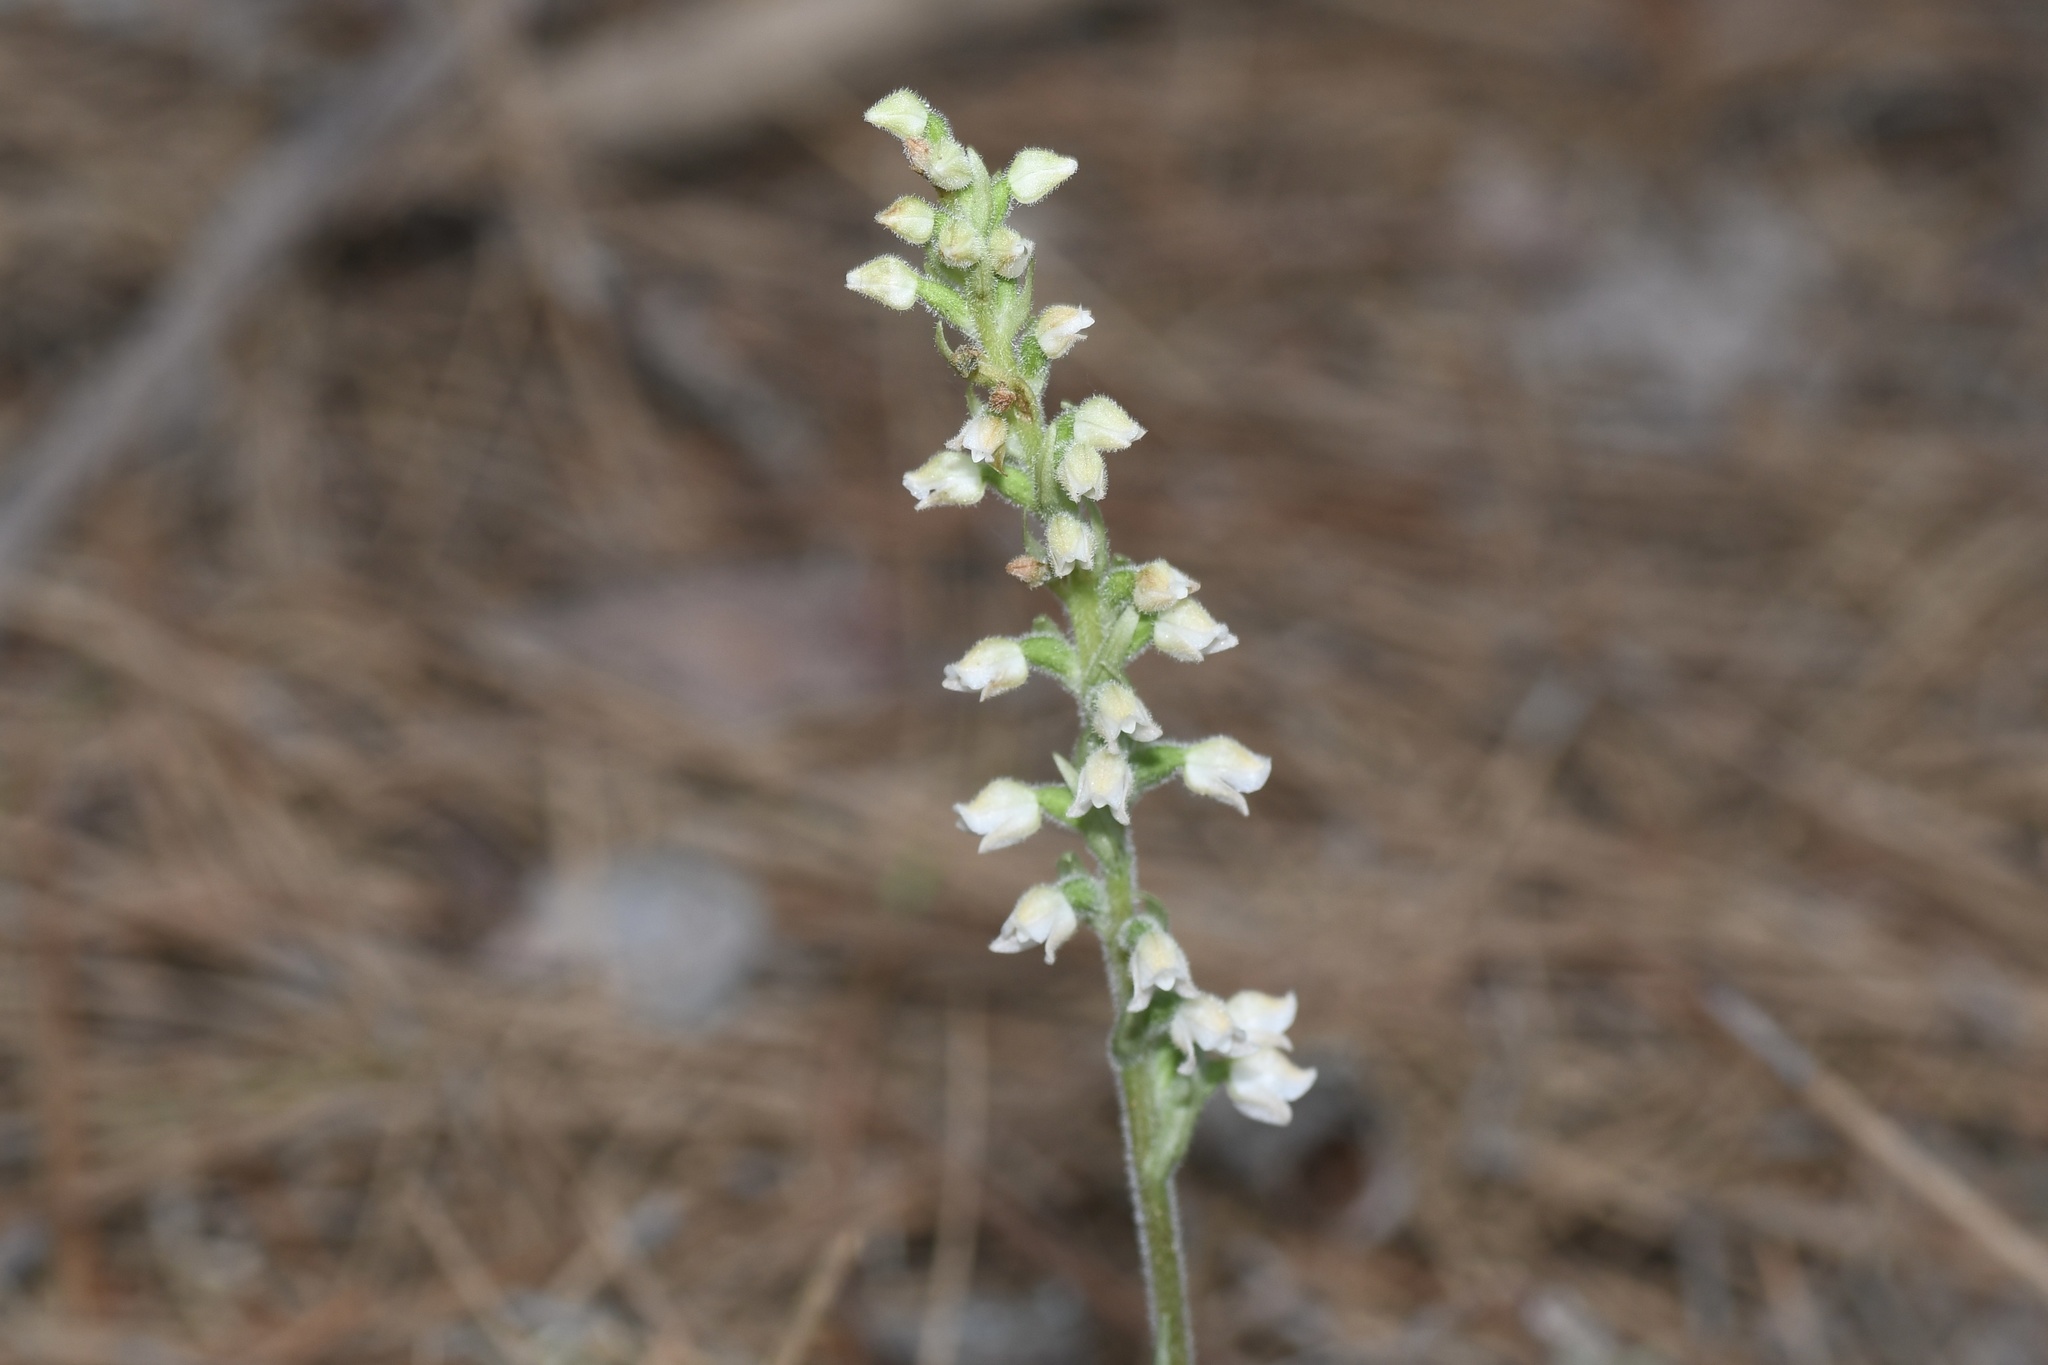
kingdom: Plantae
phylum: Tracheophyta
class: Liliopsida
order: Asparagales
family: Orchidaceae
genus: Goodyera
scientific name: Goodyera tesselata
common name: Checkered rattlesnake-plantain
